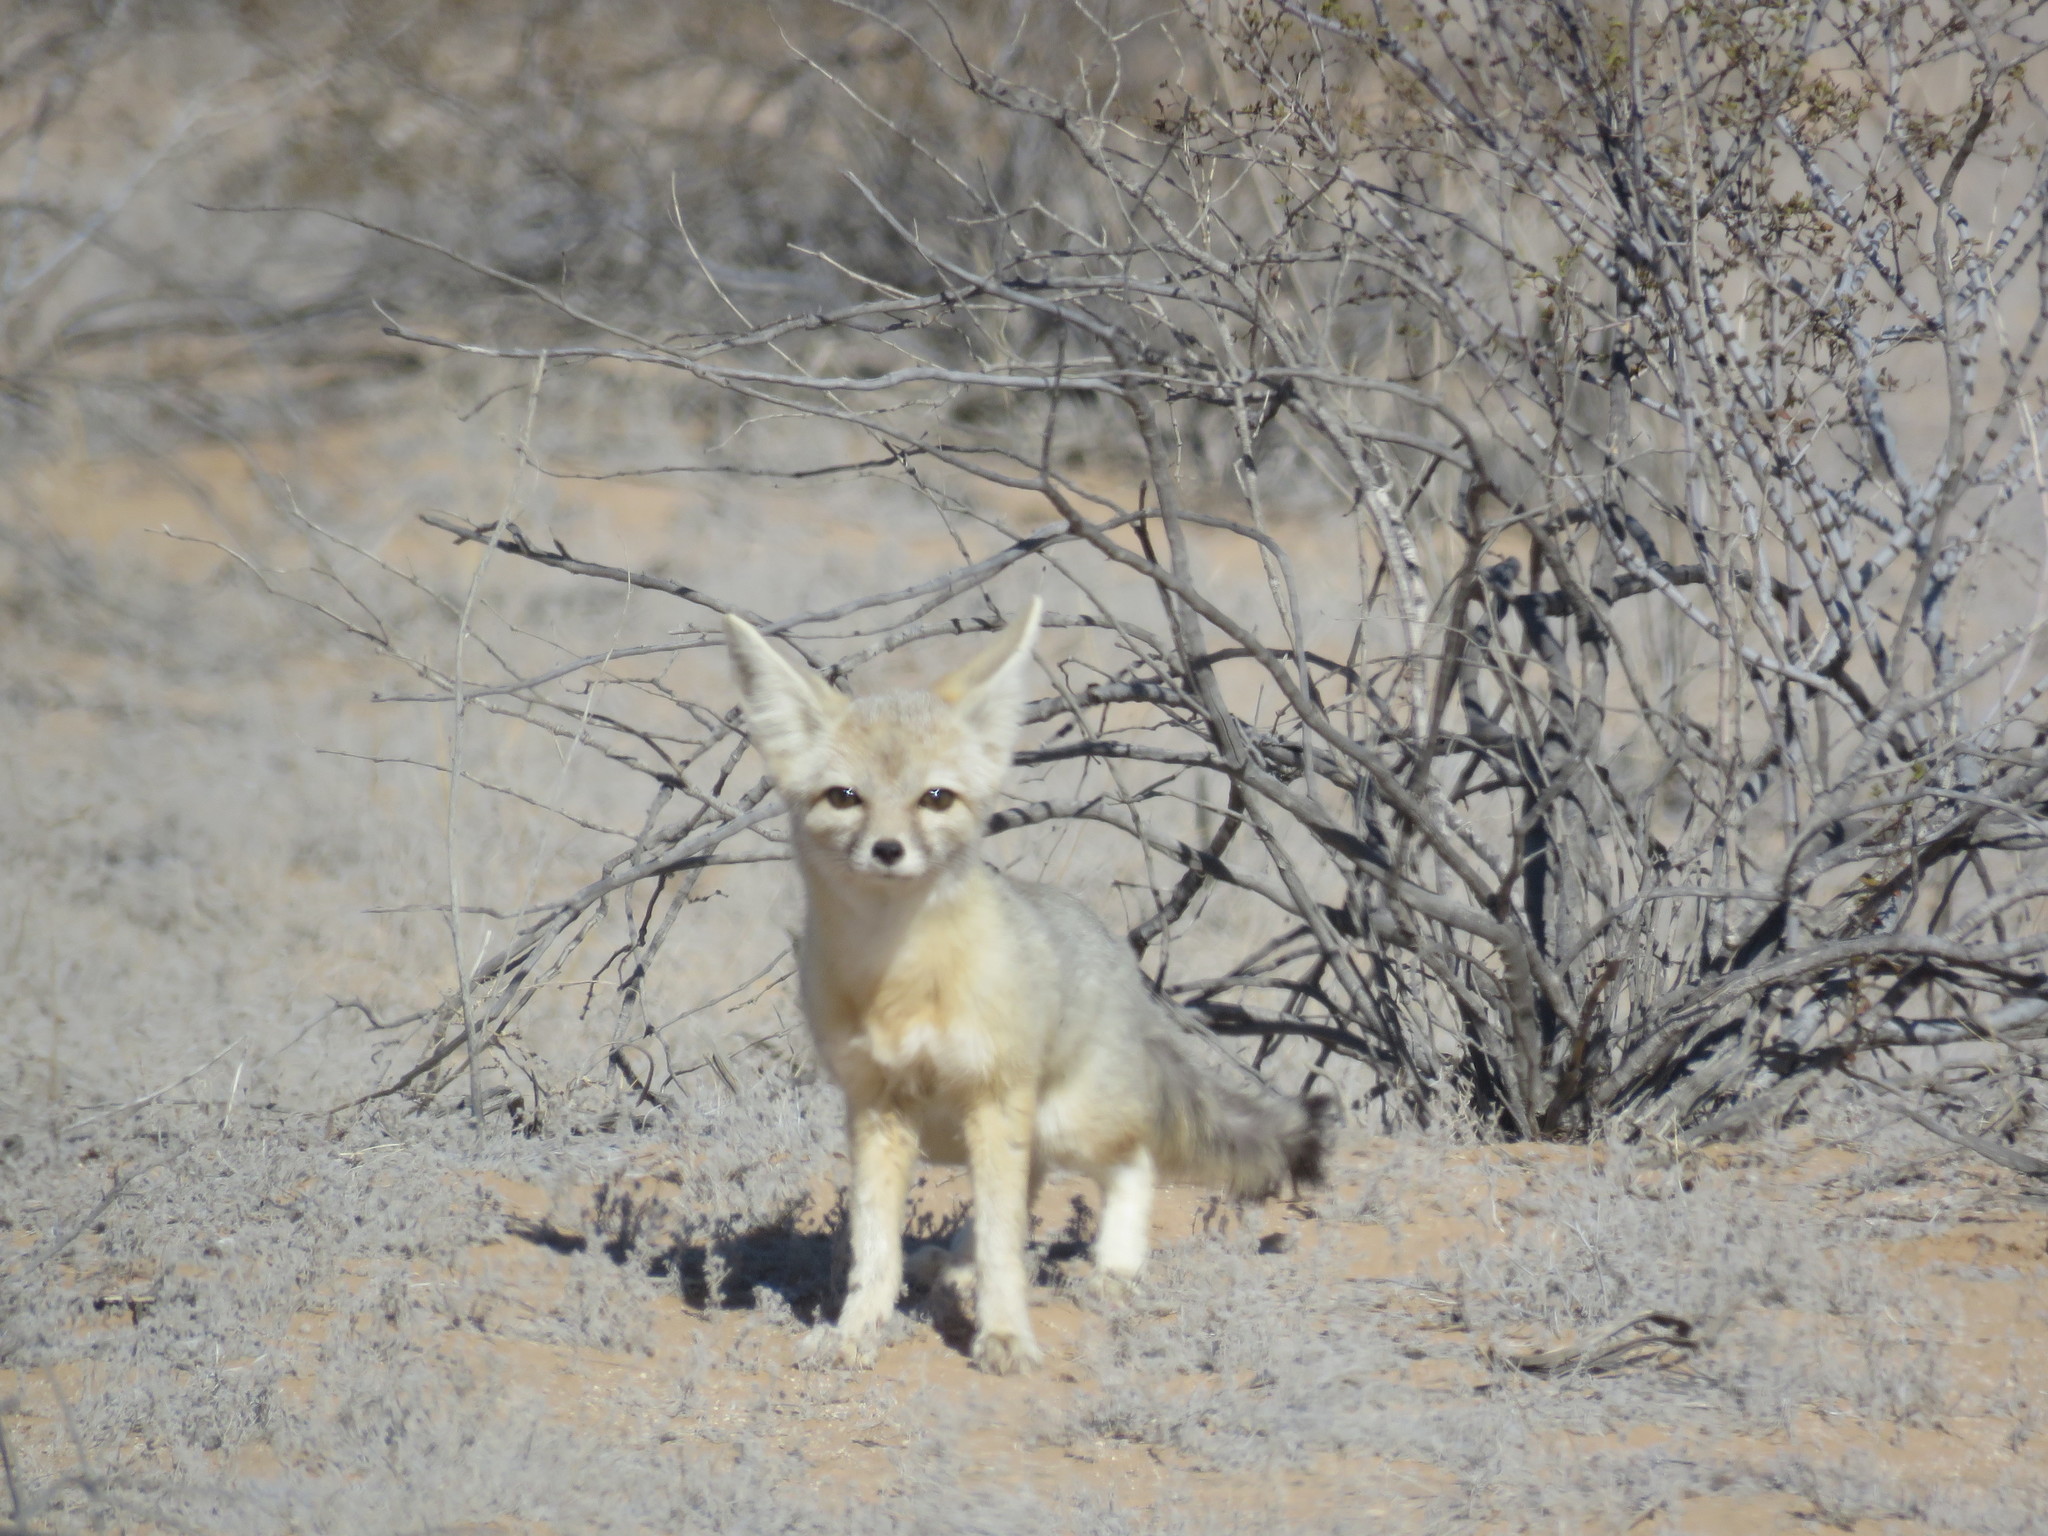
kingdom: Animalia
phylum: Chordata
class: Mammalia
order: Carnivora
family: Canidae
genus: Vulpes
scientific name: Vulpes macrotis
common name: Kit fox
